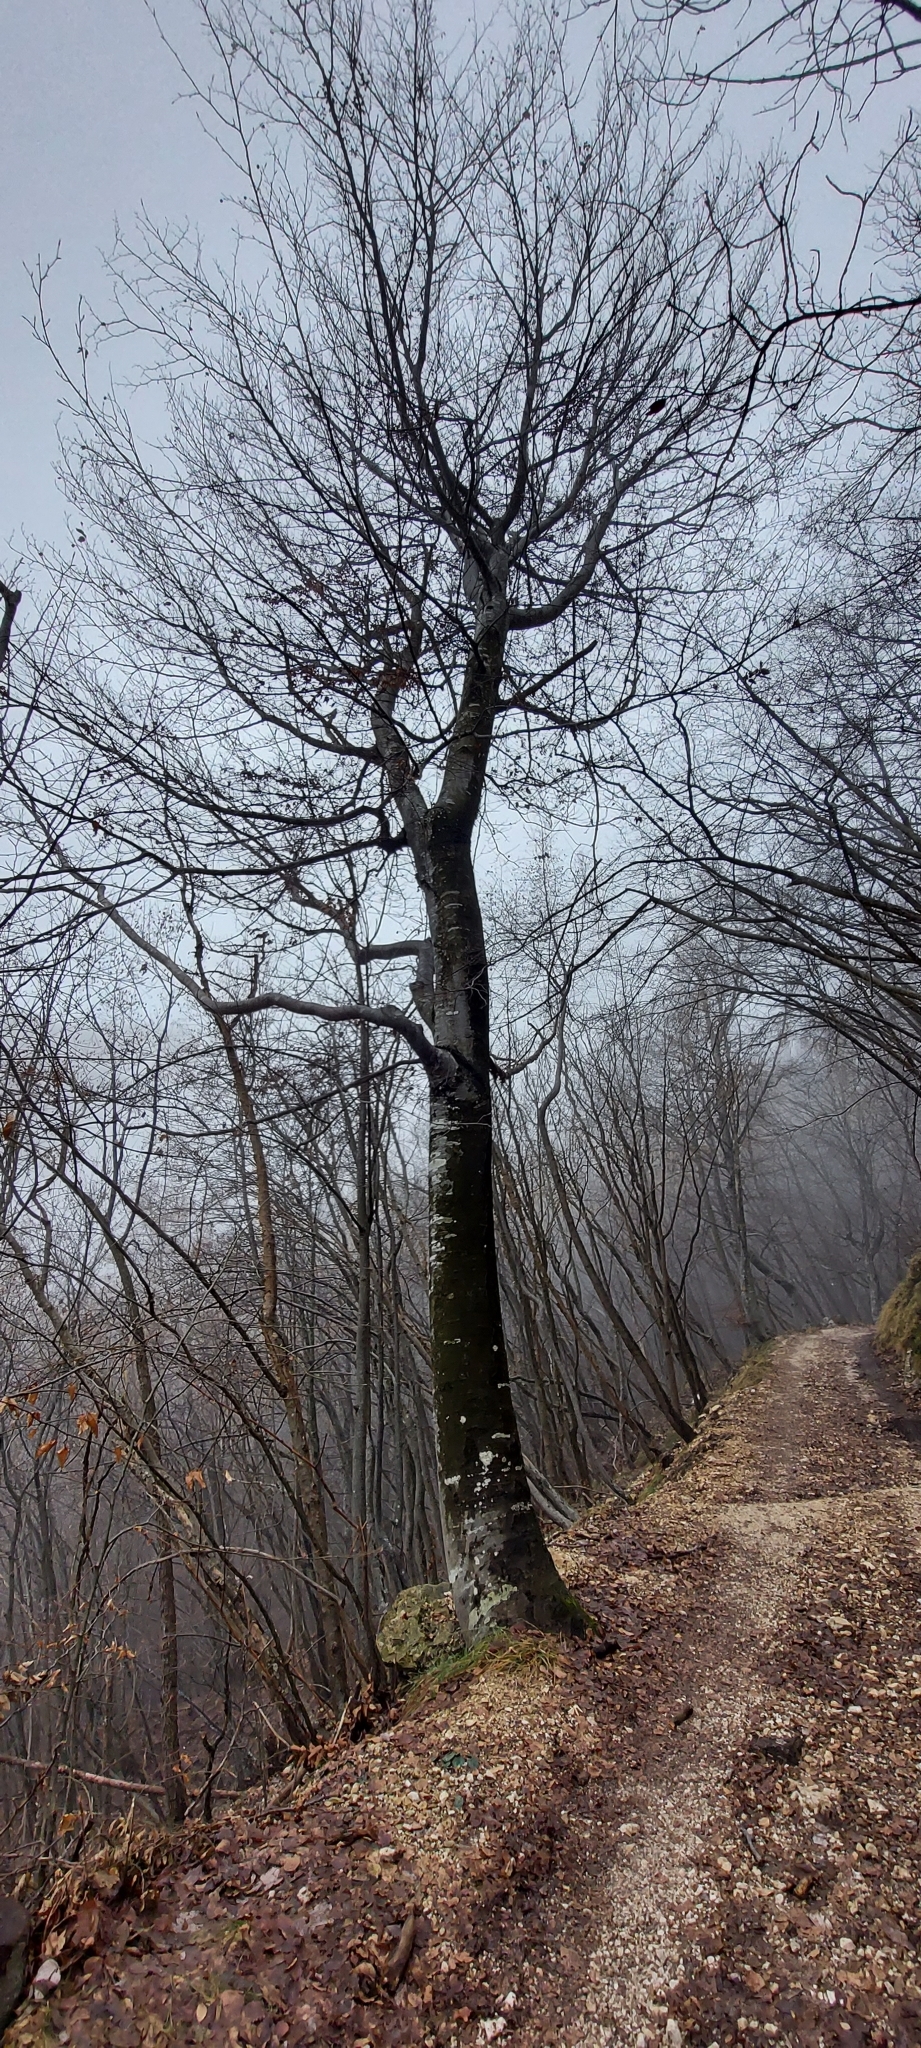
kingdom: Plantae
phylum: Tracheophyta
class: Magnoliopsida
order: Fagales
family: Fagaceae
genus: Fagus
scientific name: Fagus sylvatica
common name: Beech
